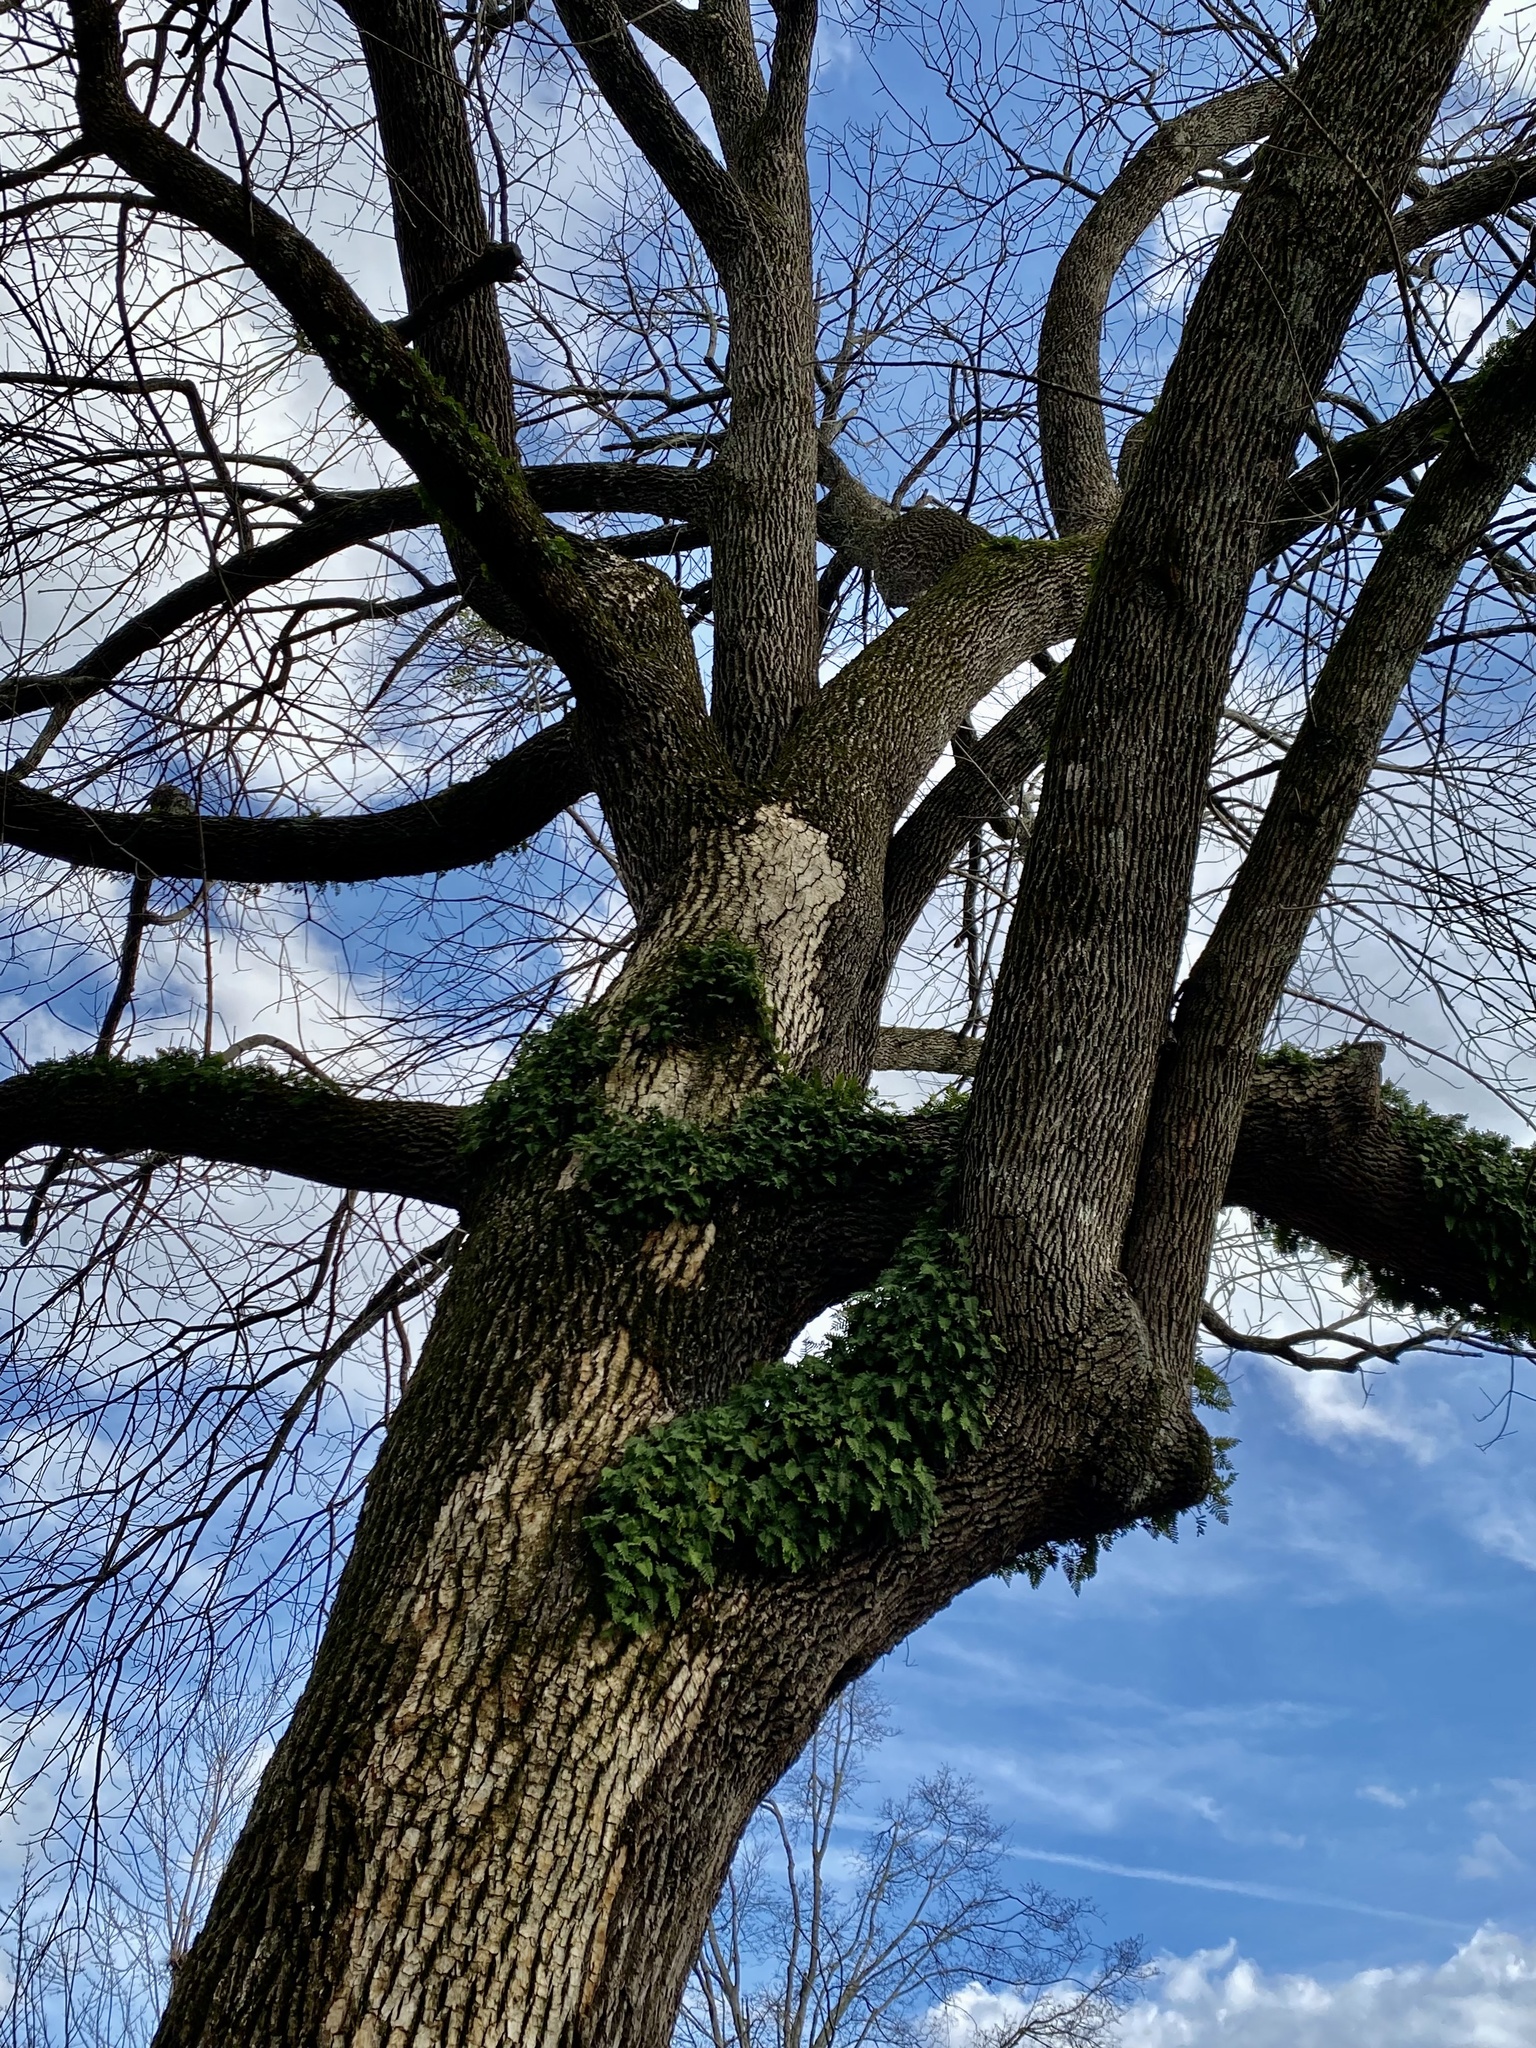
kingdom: Plantae
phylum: Tracheophyta
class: Polypodiopsida
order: Polypodiales
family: Polypodiaceae
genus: Pleopeltis
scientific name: Pleopeltis michauxiana
